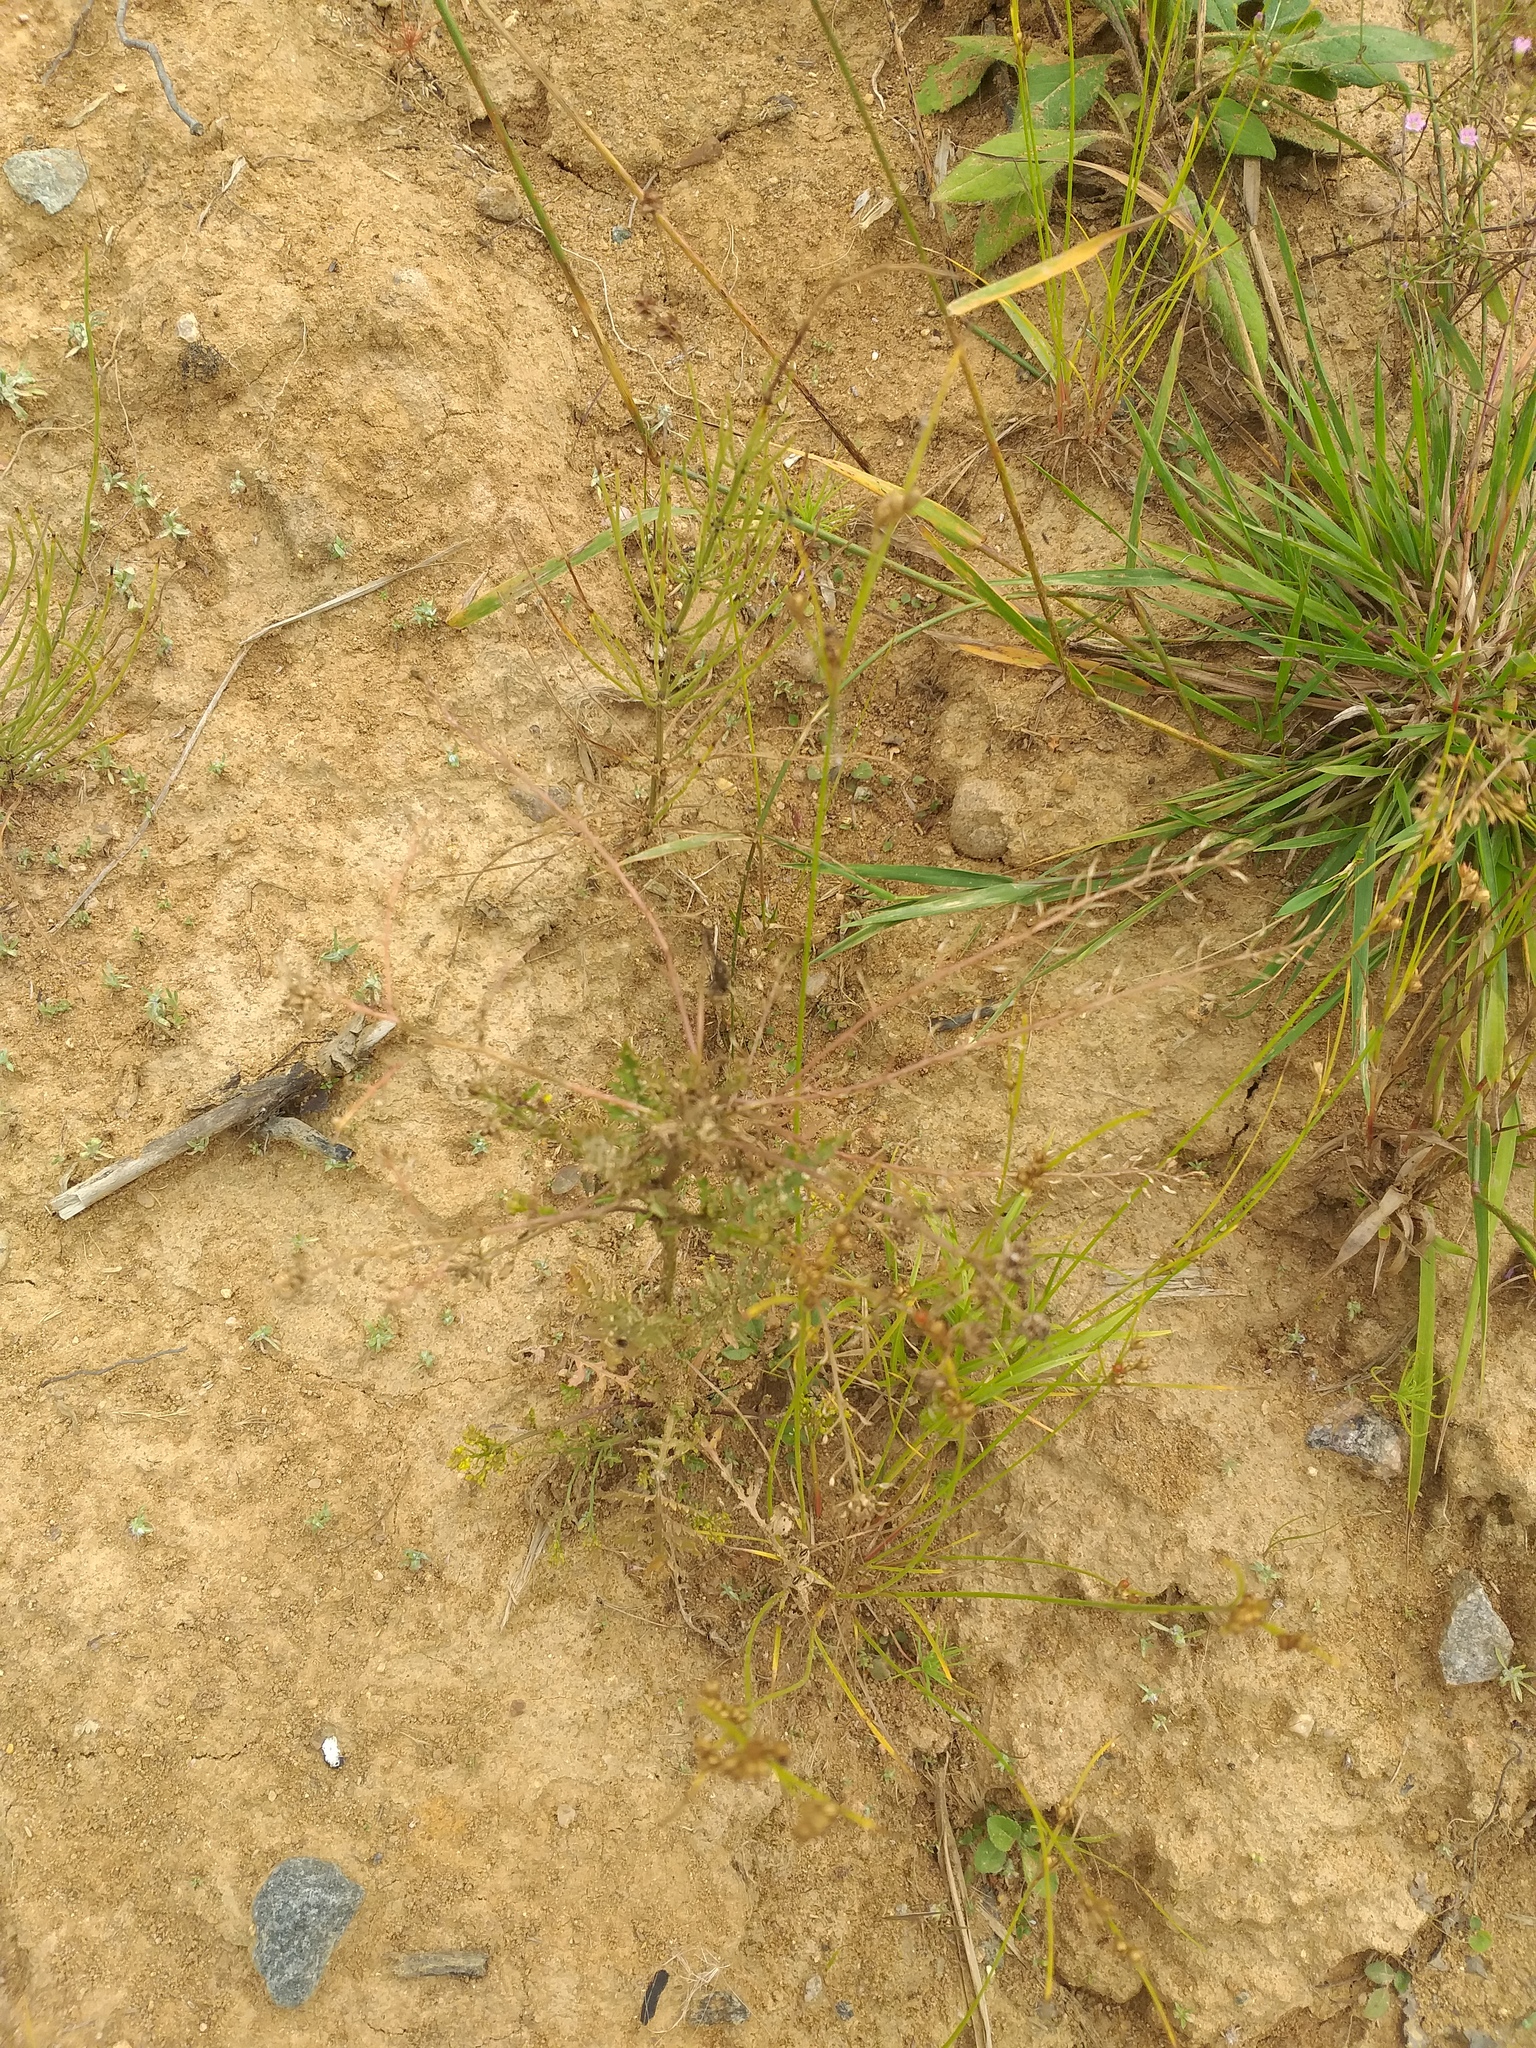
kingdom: Plantae
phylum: Tracheophyta
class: Magnoliopsida
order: Brassicales
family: Brassicaceae
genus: Rorippa
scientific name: Rorippa palustris
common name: Marsh yellow-cress
